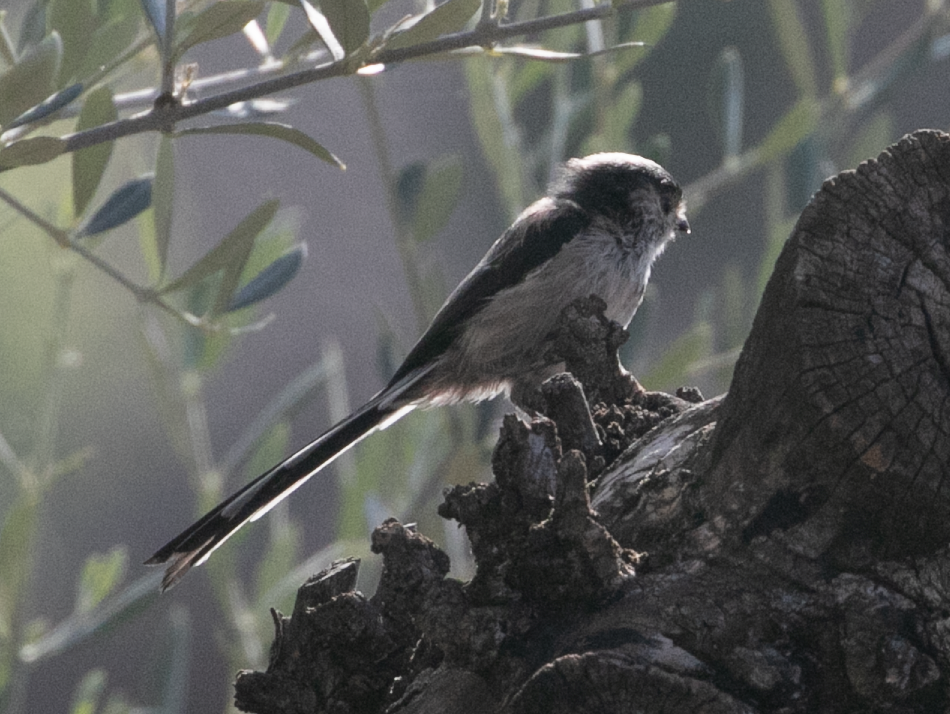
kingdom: Animalia
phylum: Chordata
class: Aves
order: Passeriformes
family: Aegithalidae
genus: Aegithalos
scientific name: Aegithalos caudatus
